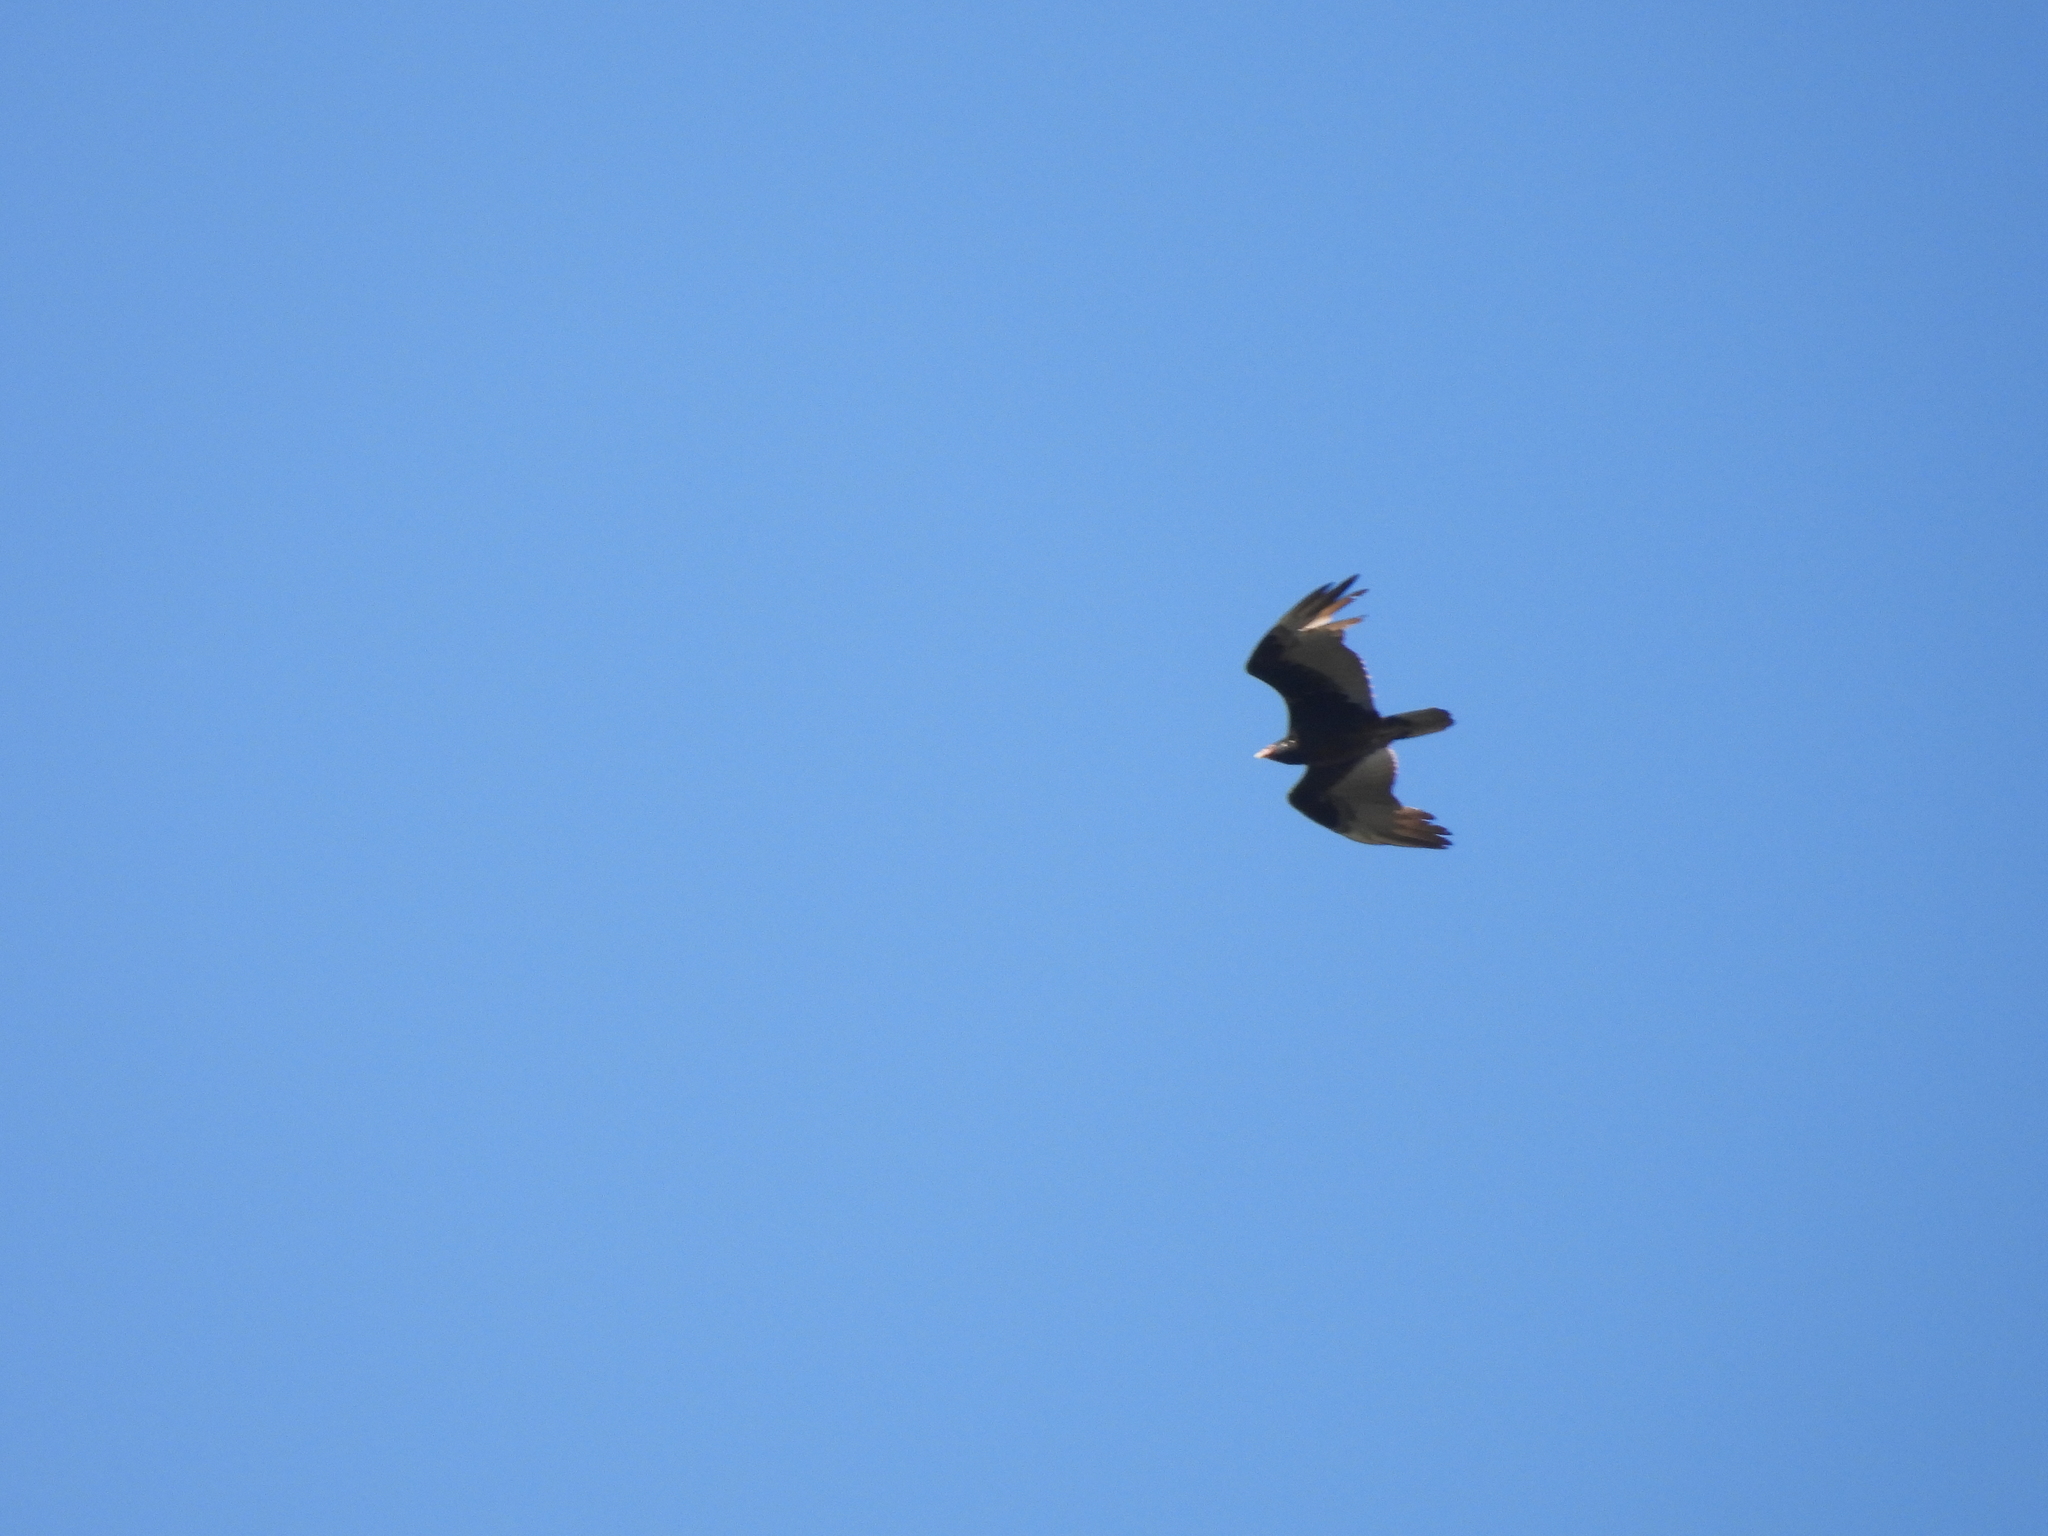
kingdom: Animalia
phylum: Chordata
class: Aves
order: Accipitriformes
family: Cathartidae
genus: Cathartes
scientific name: Cathartes aura
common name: Turkey vulture
